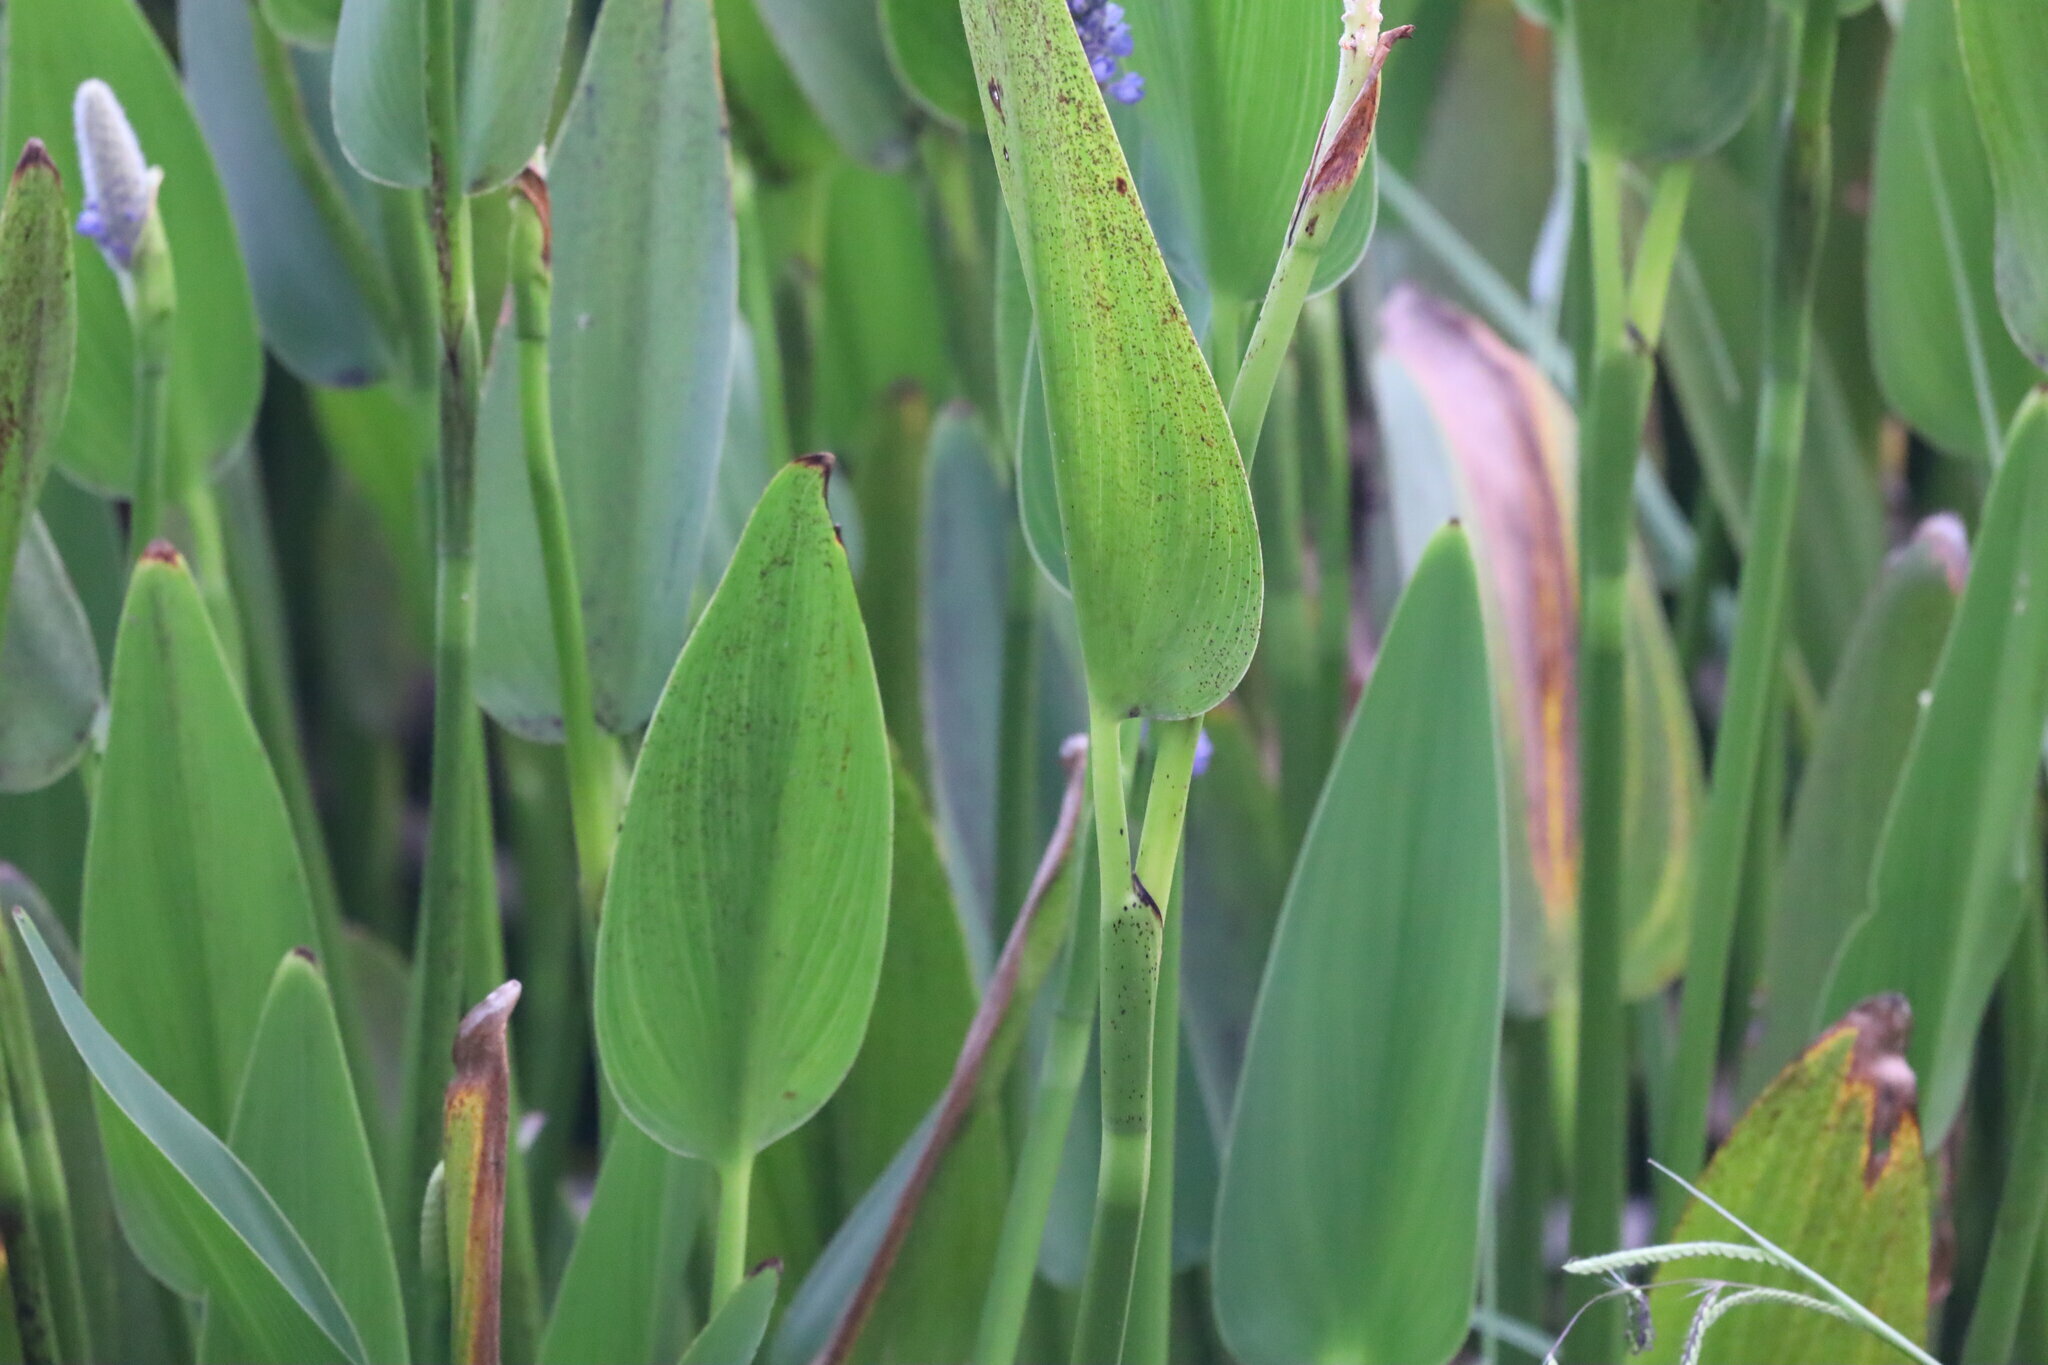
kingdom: Plantae
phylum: Tracheophyta
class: Liliopsida
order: Commelinales
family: Pontederiaceae
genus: Pontederia
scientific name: Pontederia cordata
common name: Pickerelweed
